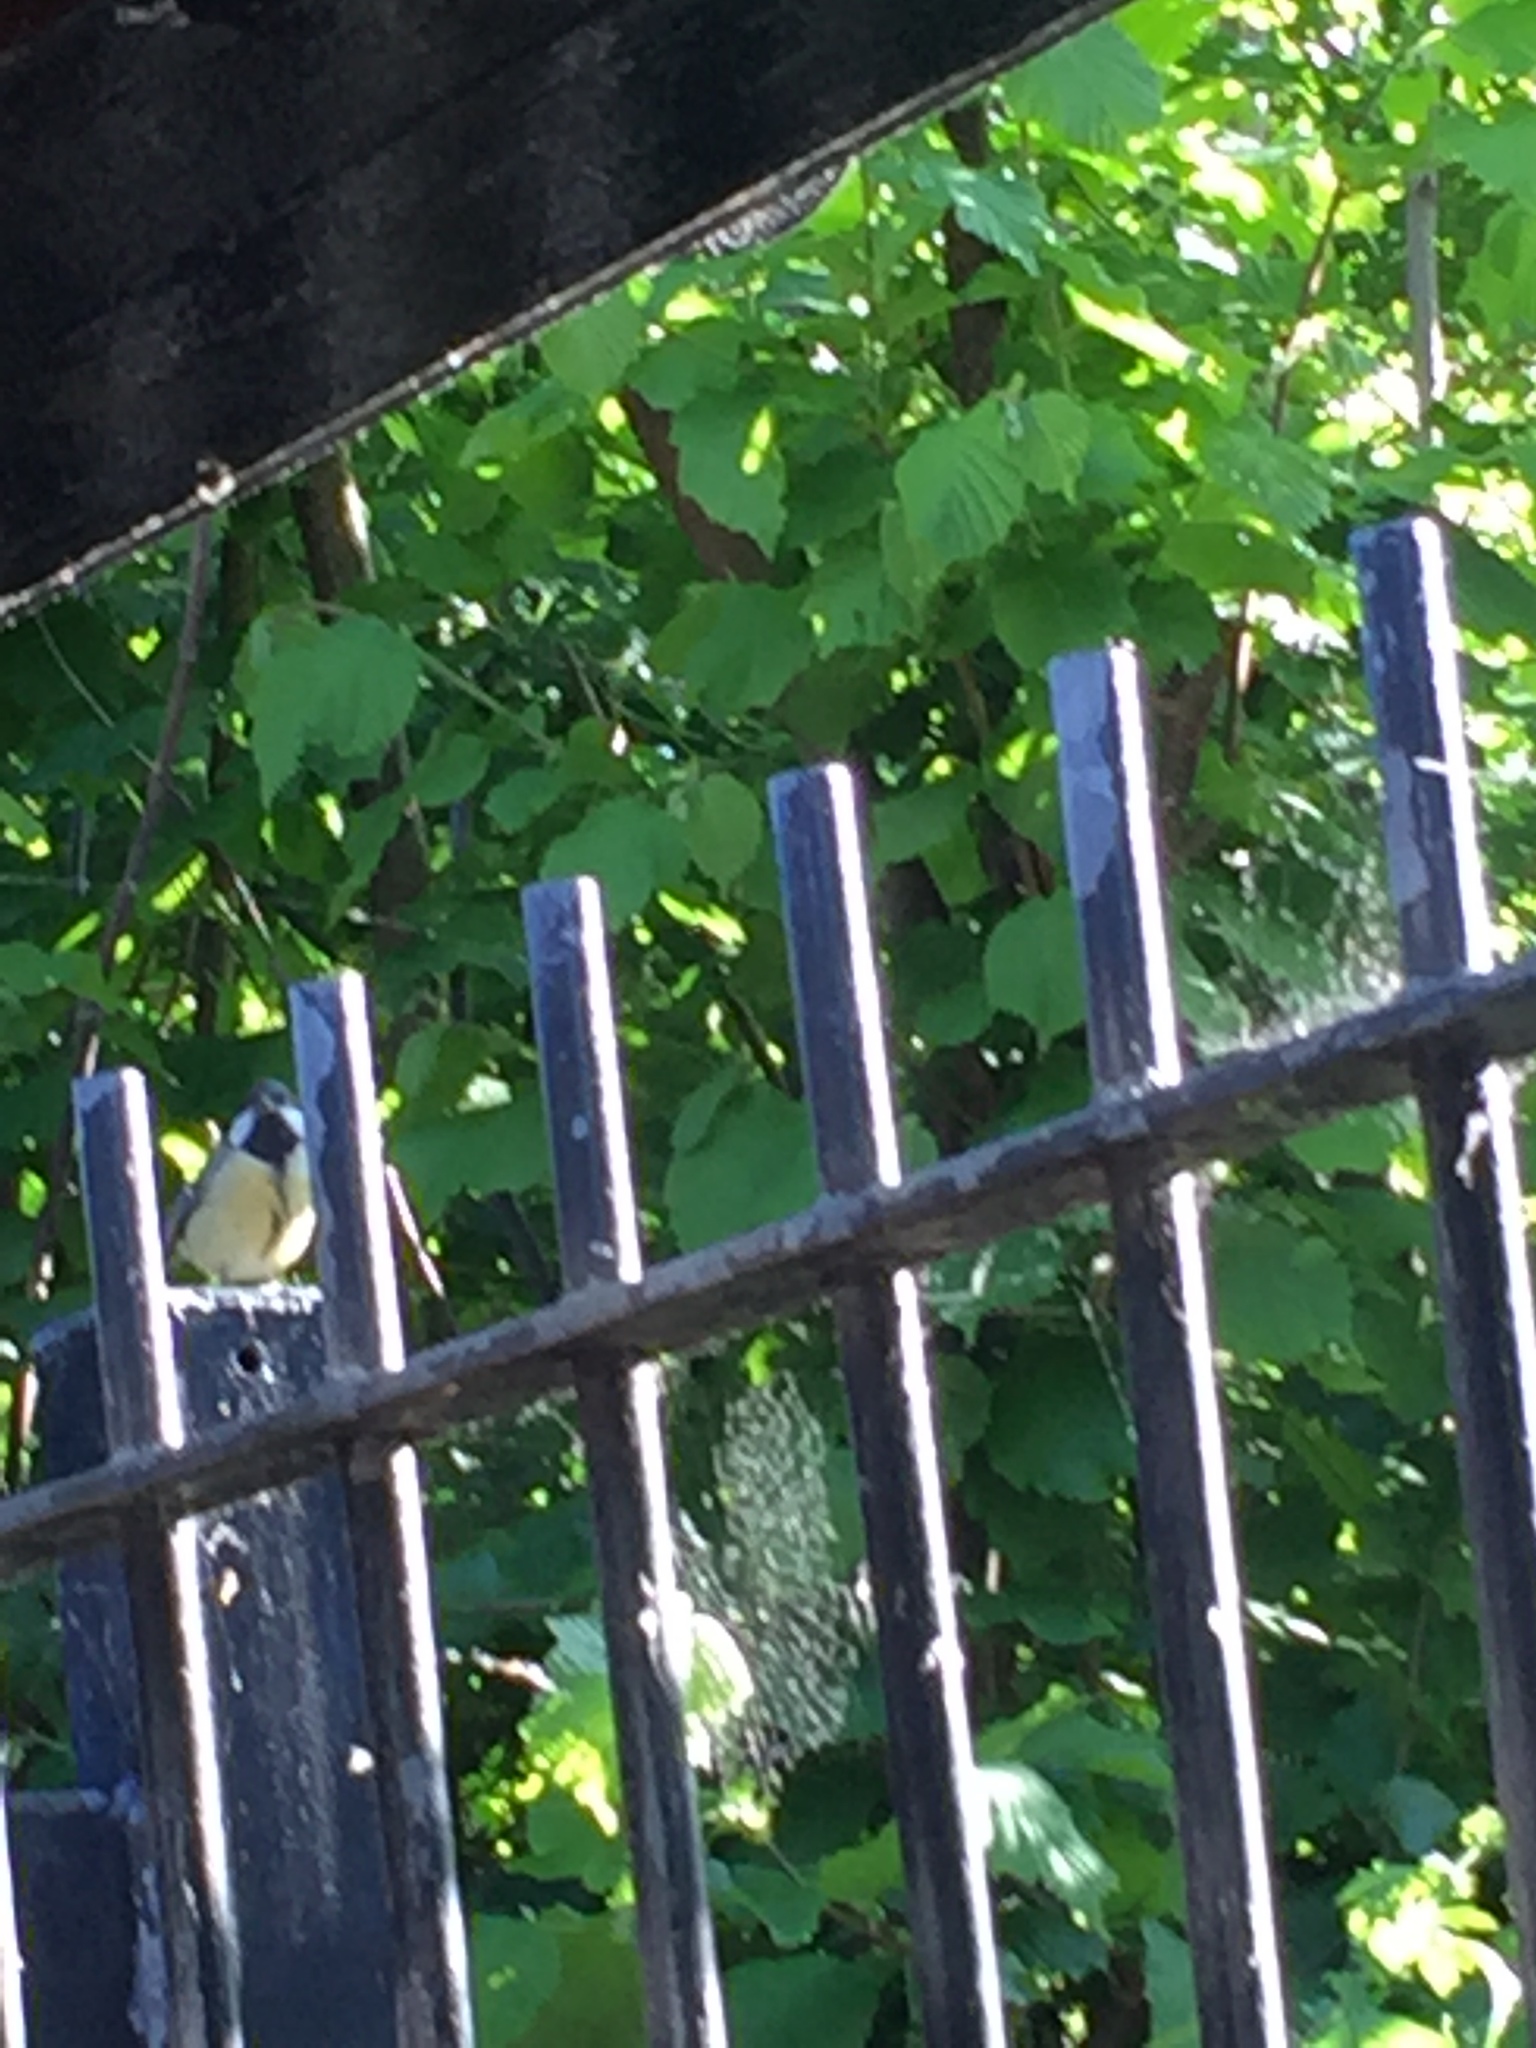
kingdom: Animalia
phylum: Chordata
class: Aves
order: Passeriformes
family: Paridae
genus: Parus
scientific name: Parus major
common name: Great tit
